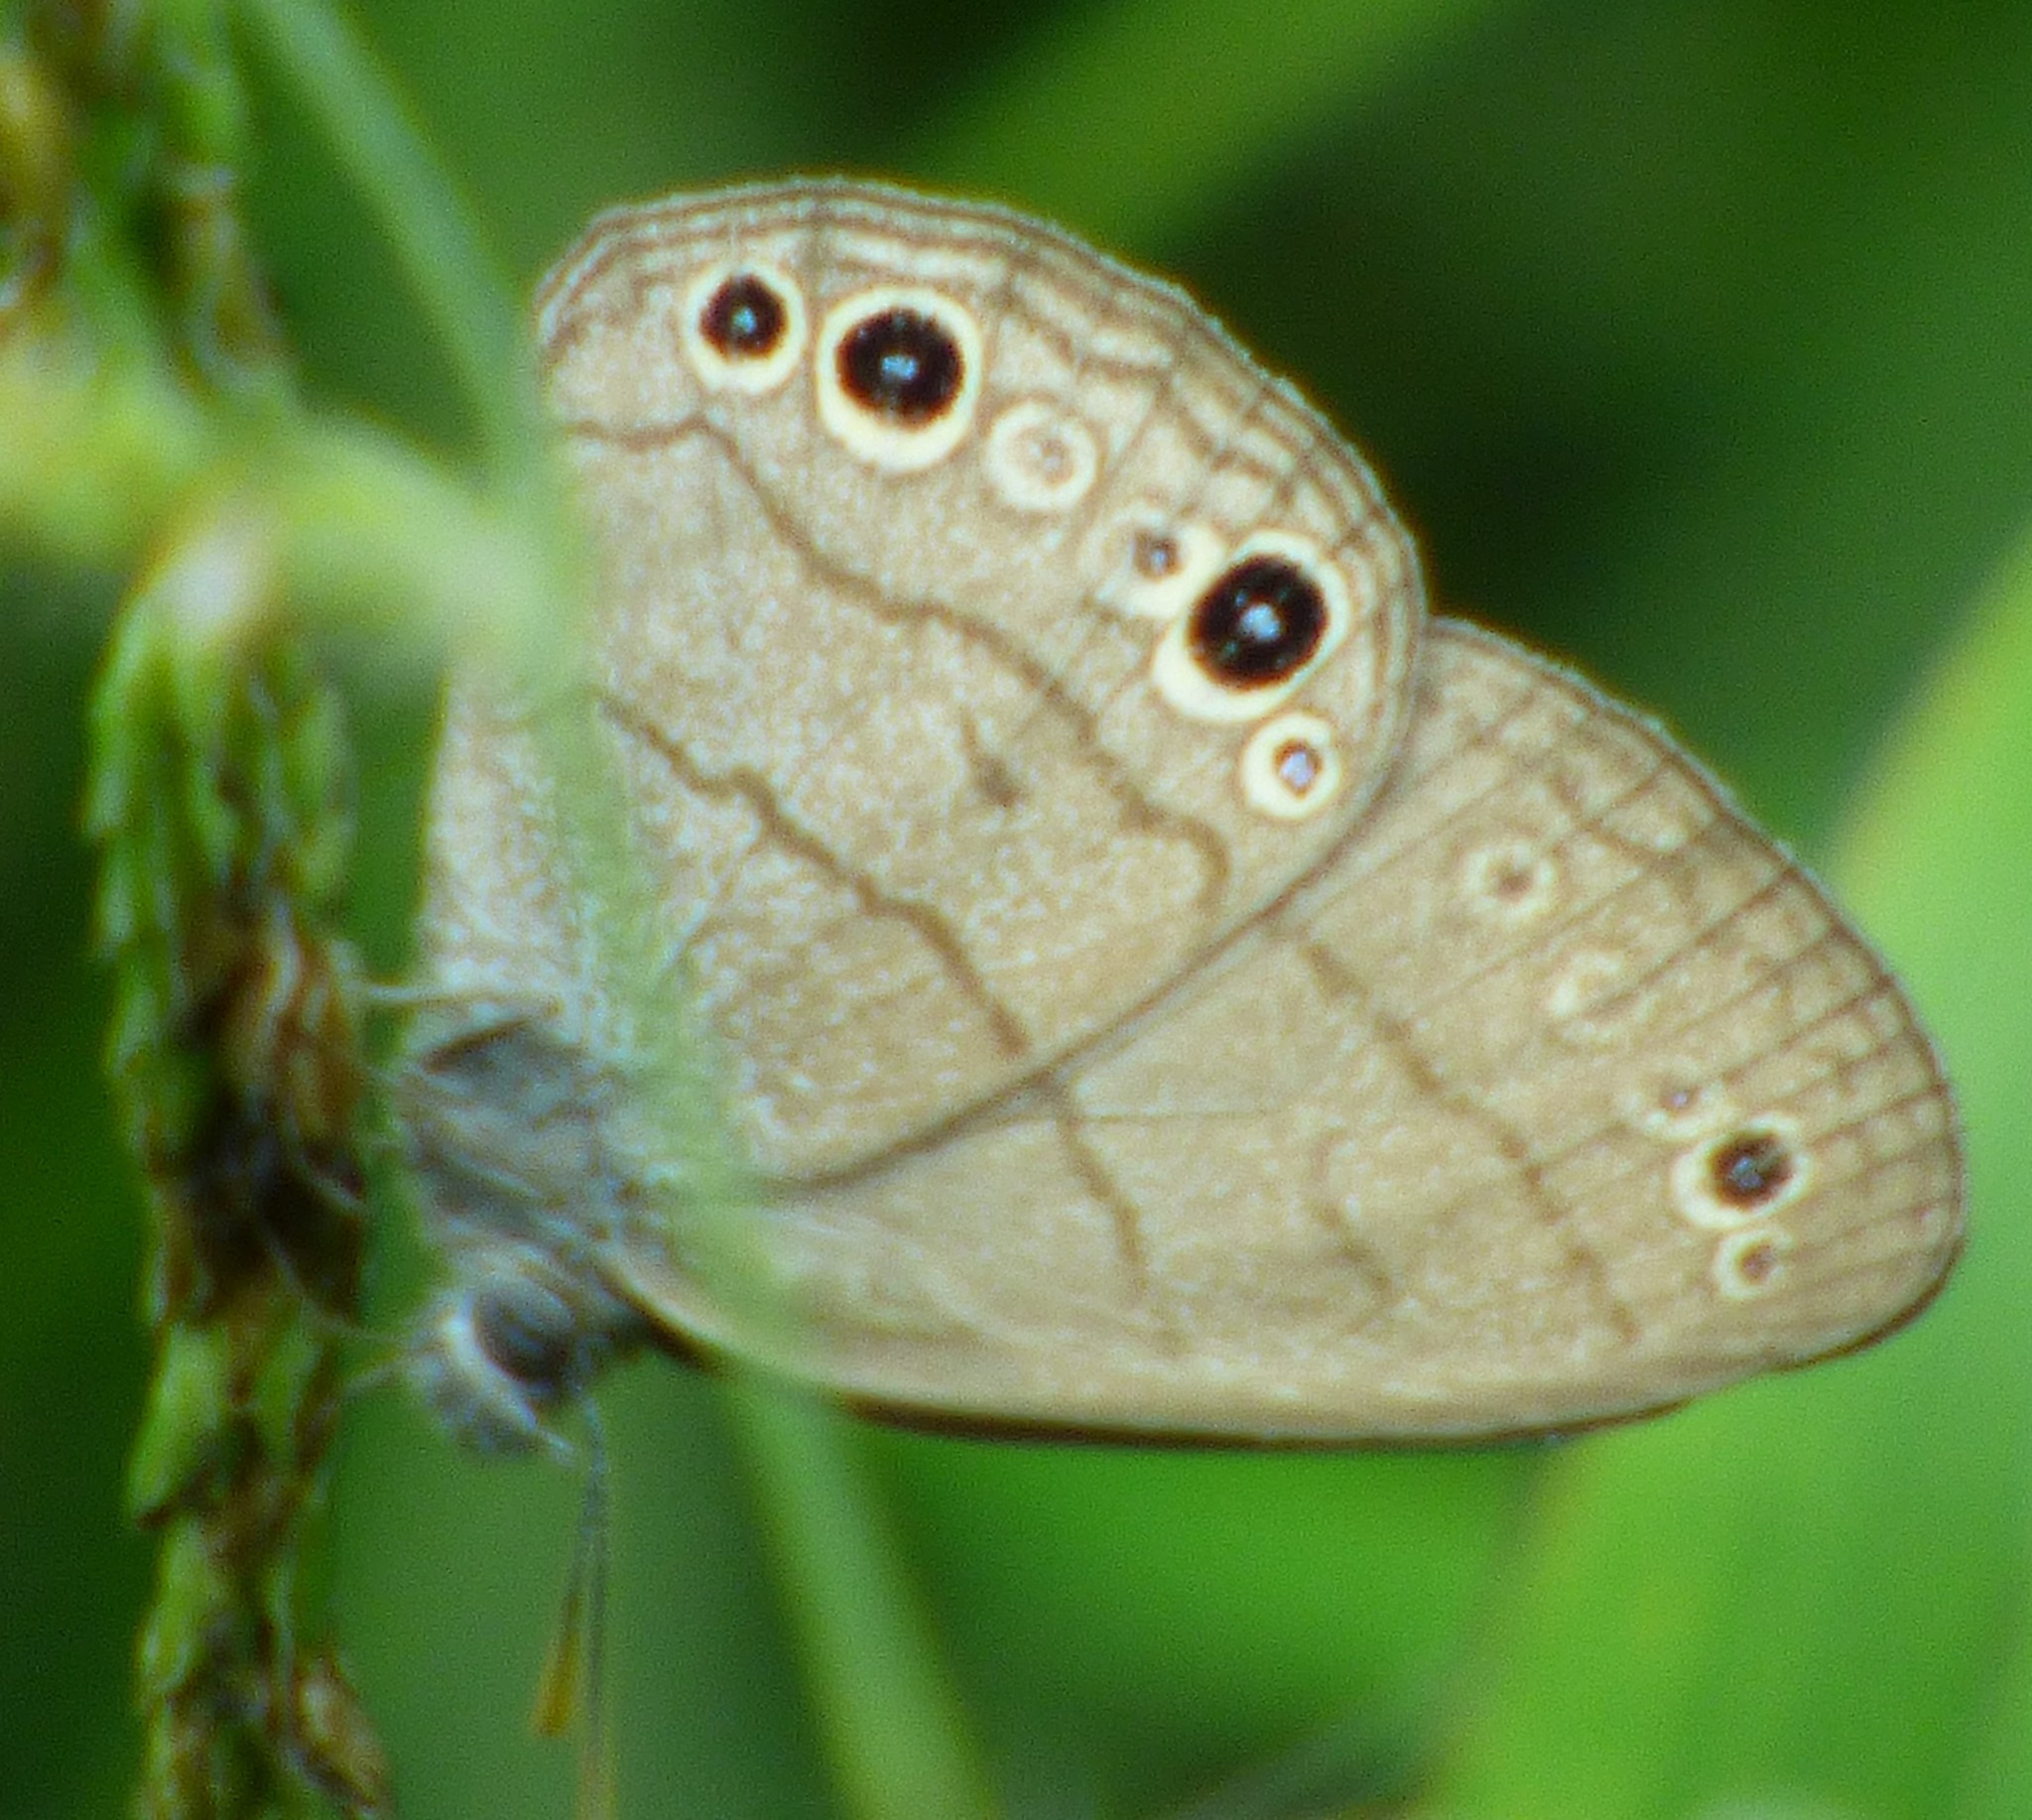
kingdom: Animalia
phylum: Arthropoda
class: Insecta
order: Lepidoptera
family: Nymphalidae
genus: Hermeuptychia
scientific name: Hermeuptychia hermes
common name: Hermes satyr
